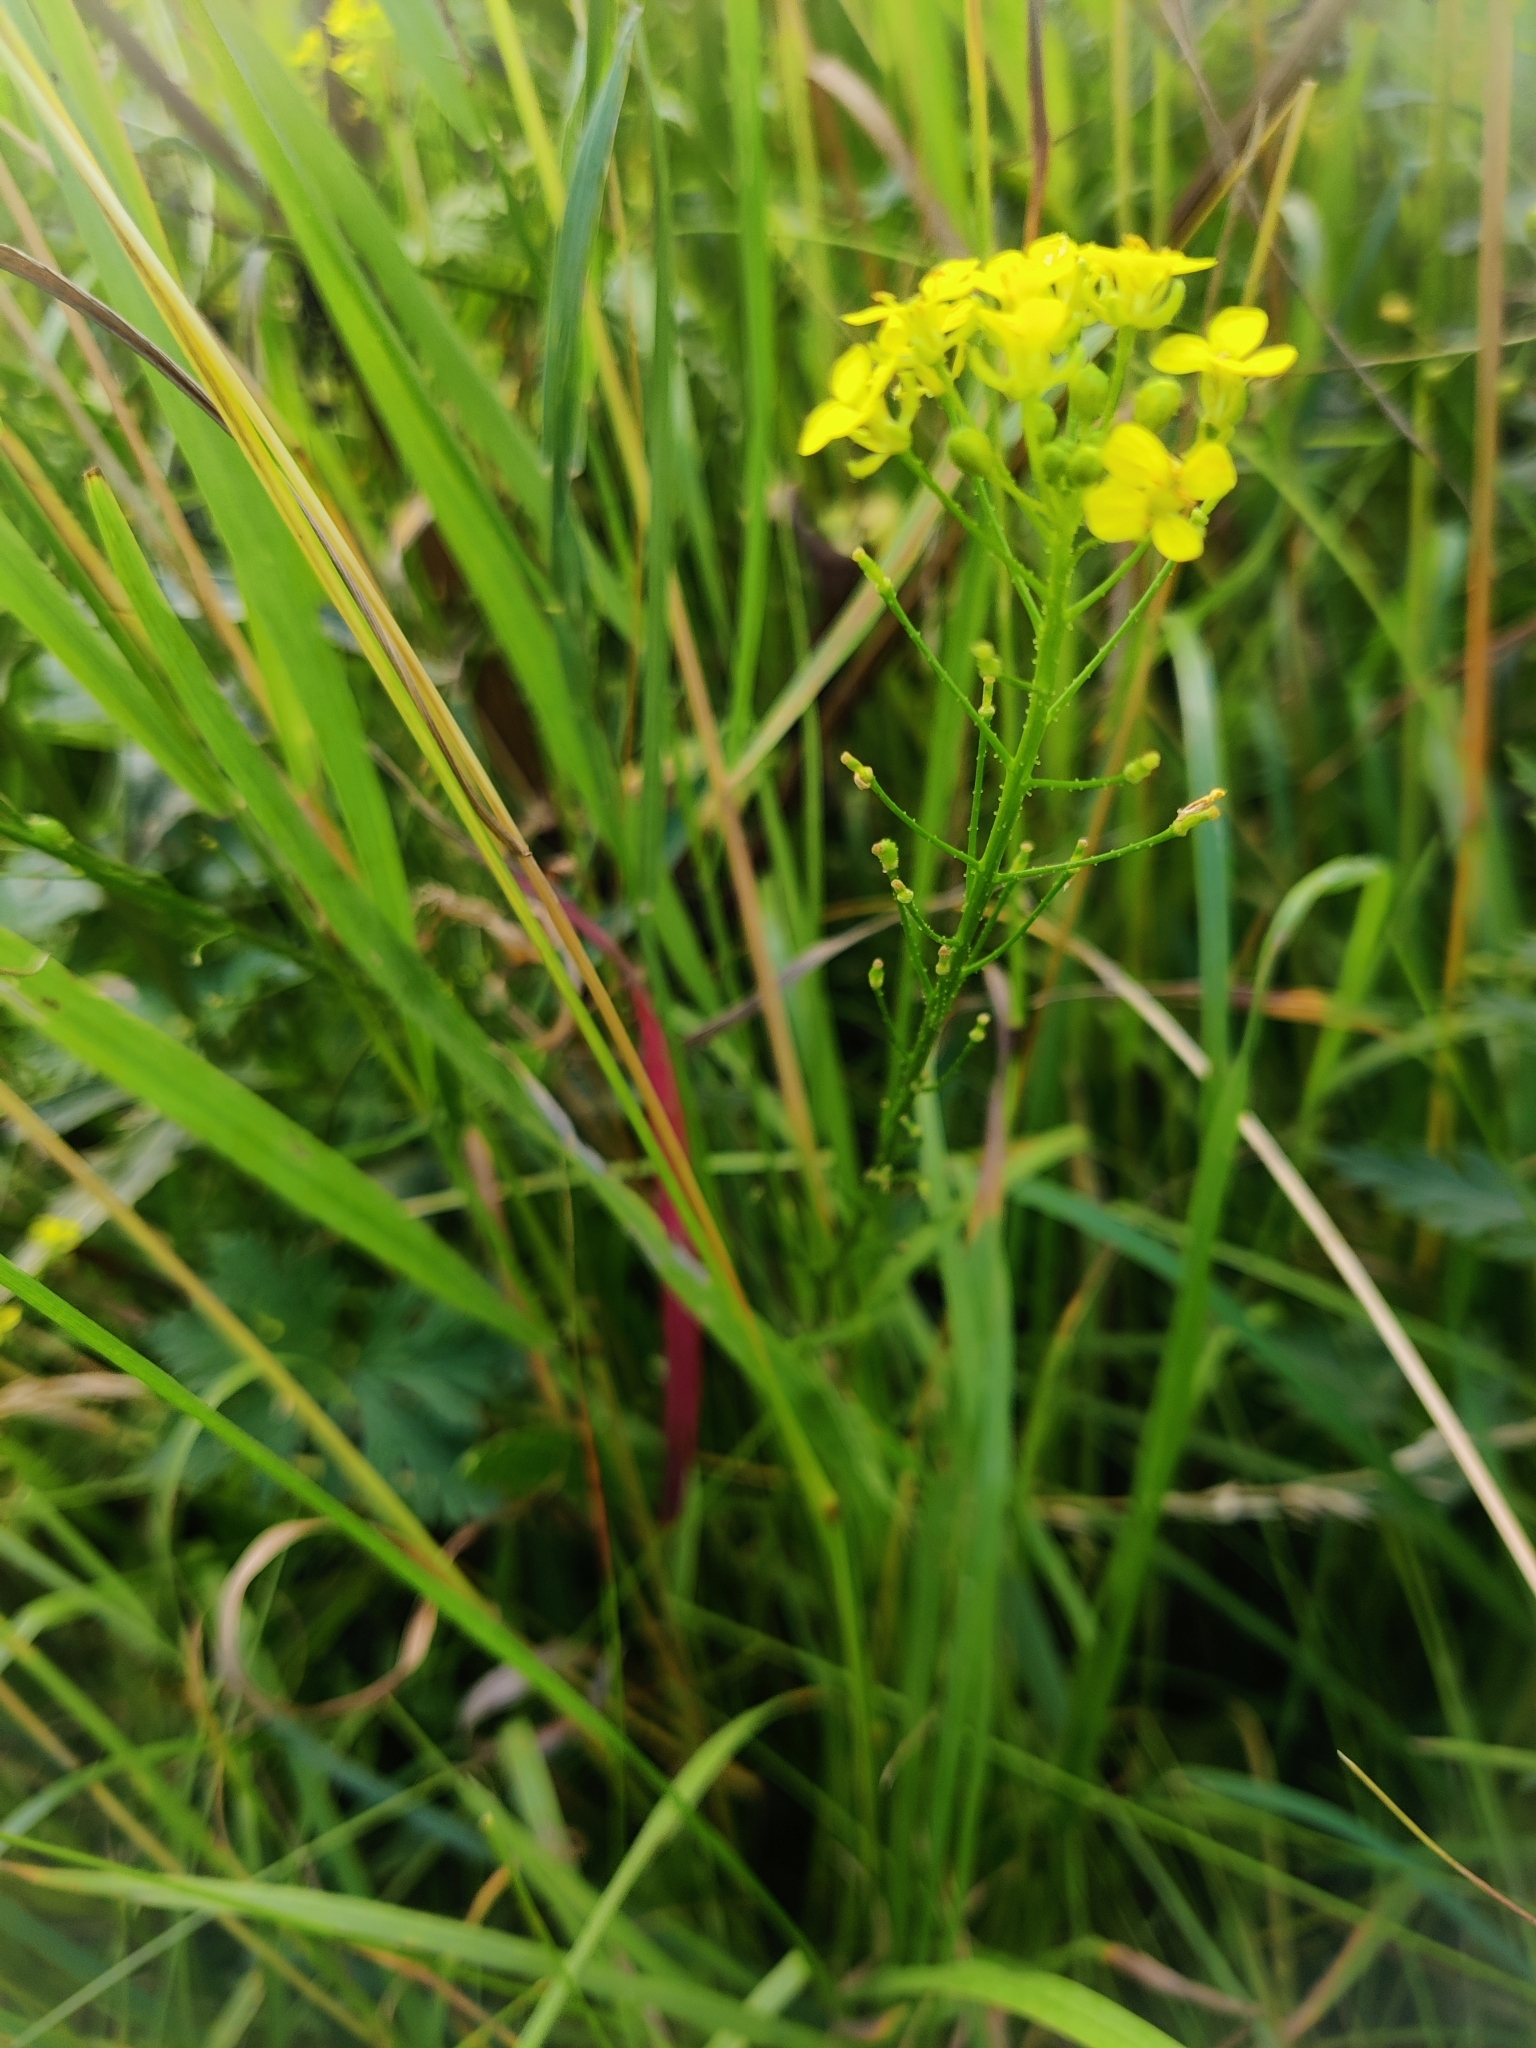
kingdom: Plantae
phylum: Tracheophyta
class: Magnoliopsida
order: Brassicales
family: Brassicaceae
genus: Bunias
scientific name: Bunias orientalis
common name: Warty-cabbage
